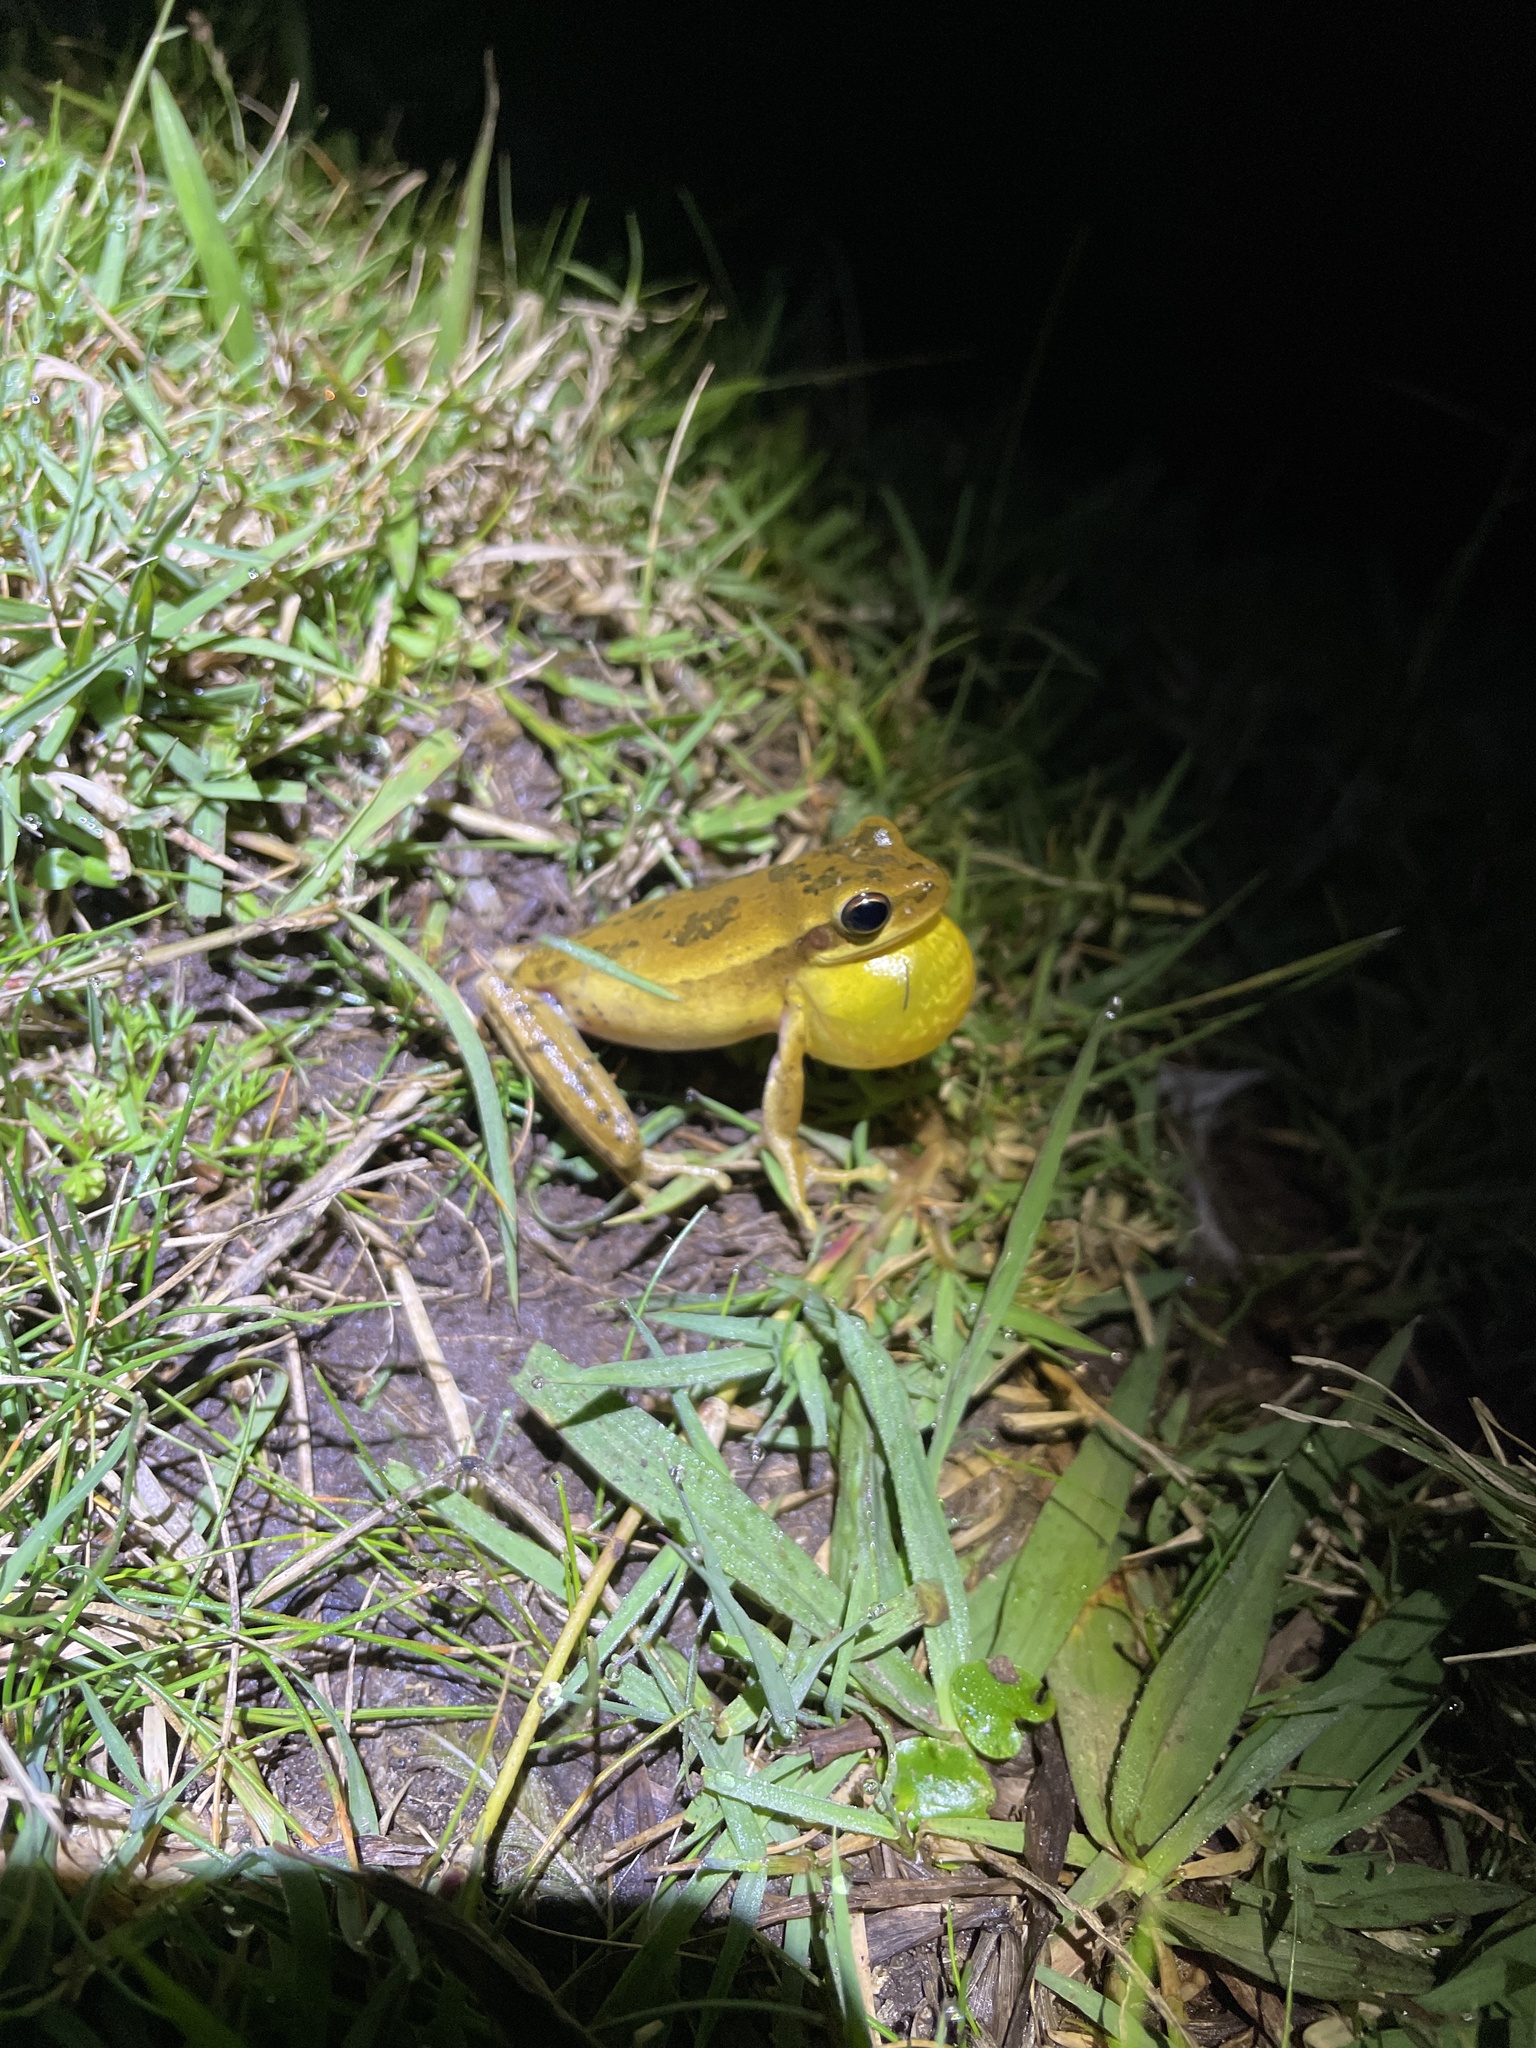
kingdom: Animalia
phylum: Chordata
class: Amphibia
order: Anura
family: Hylidae
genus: Boana
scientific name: Boana pulchella
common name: Montevideo treefrog
